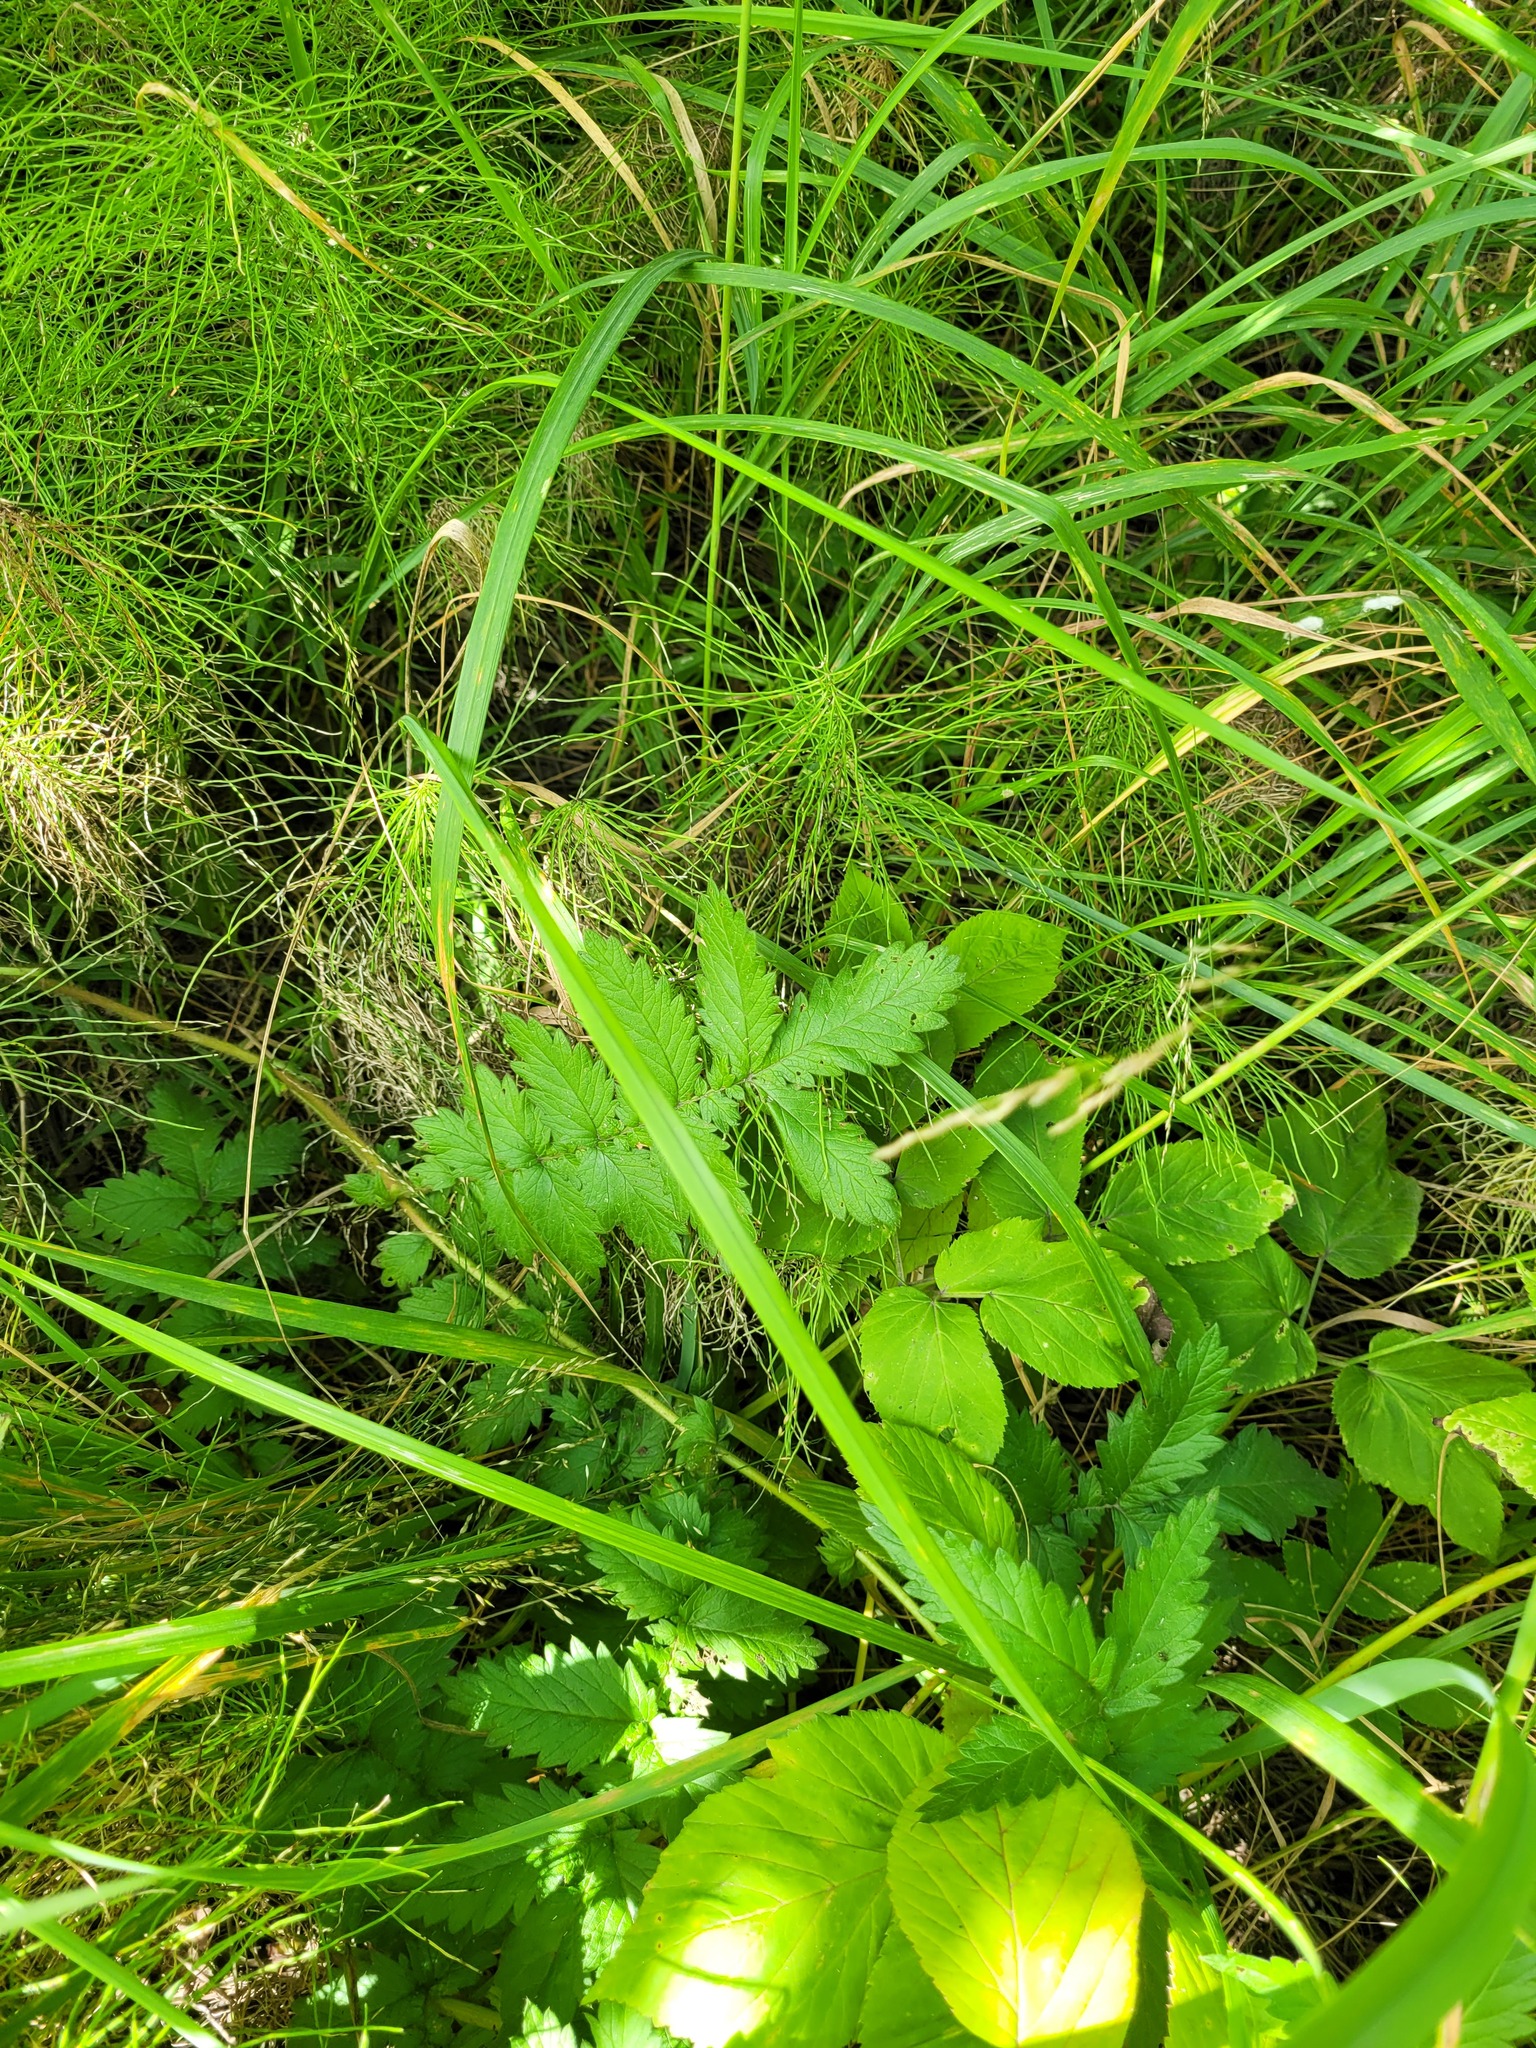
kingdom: Plantae
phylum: Tracheophyta
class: Magnoliopsida
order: Rosales
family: Rosaceae
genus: Agrimonia
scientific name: Agrimonia eupatoria
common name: Agrimony
